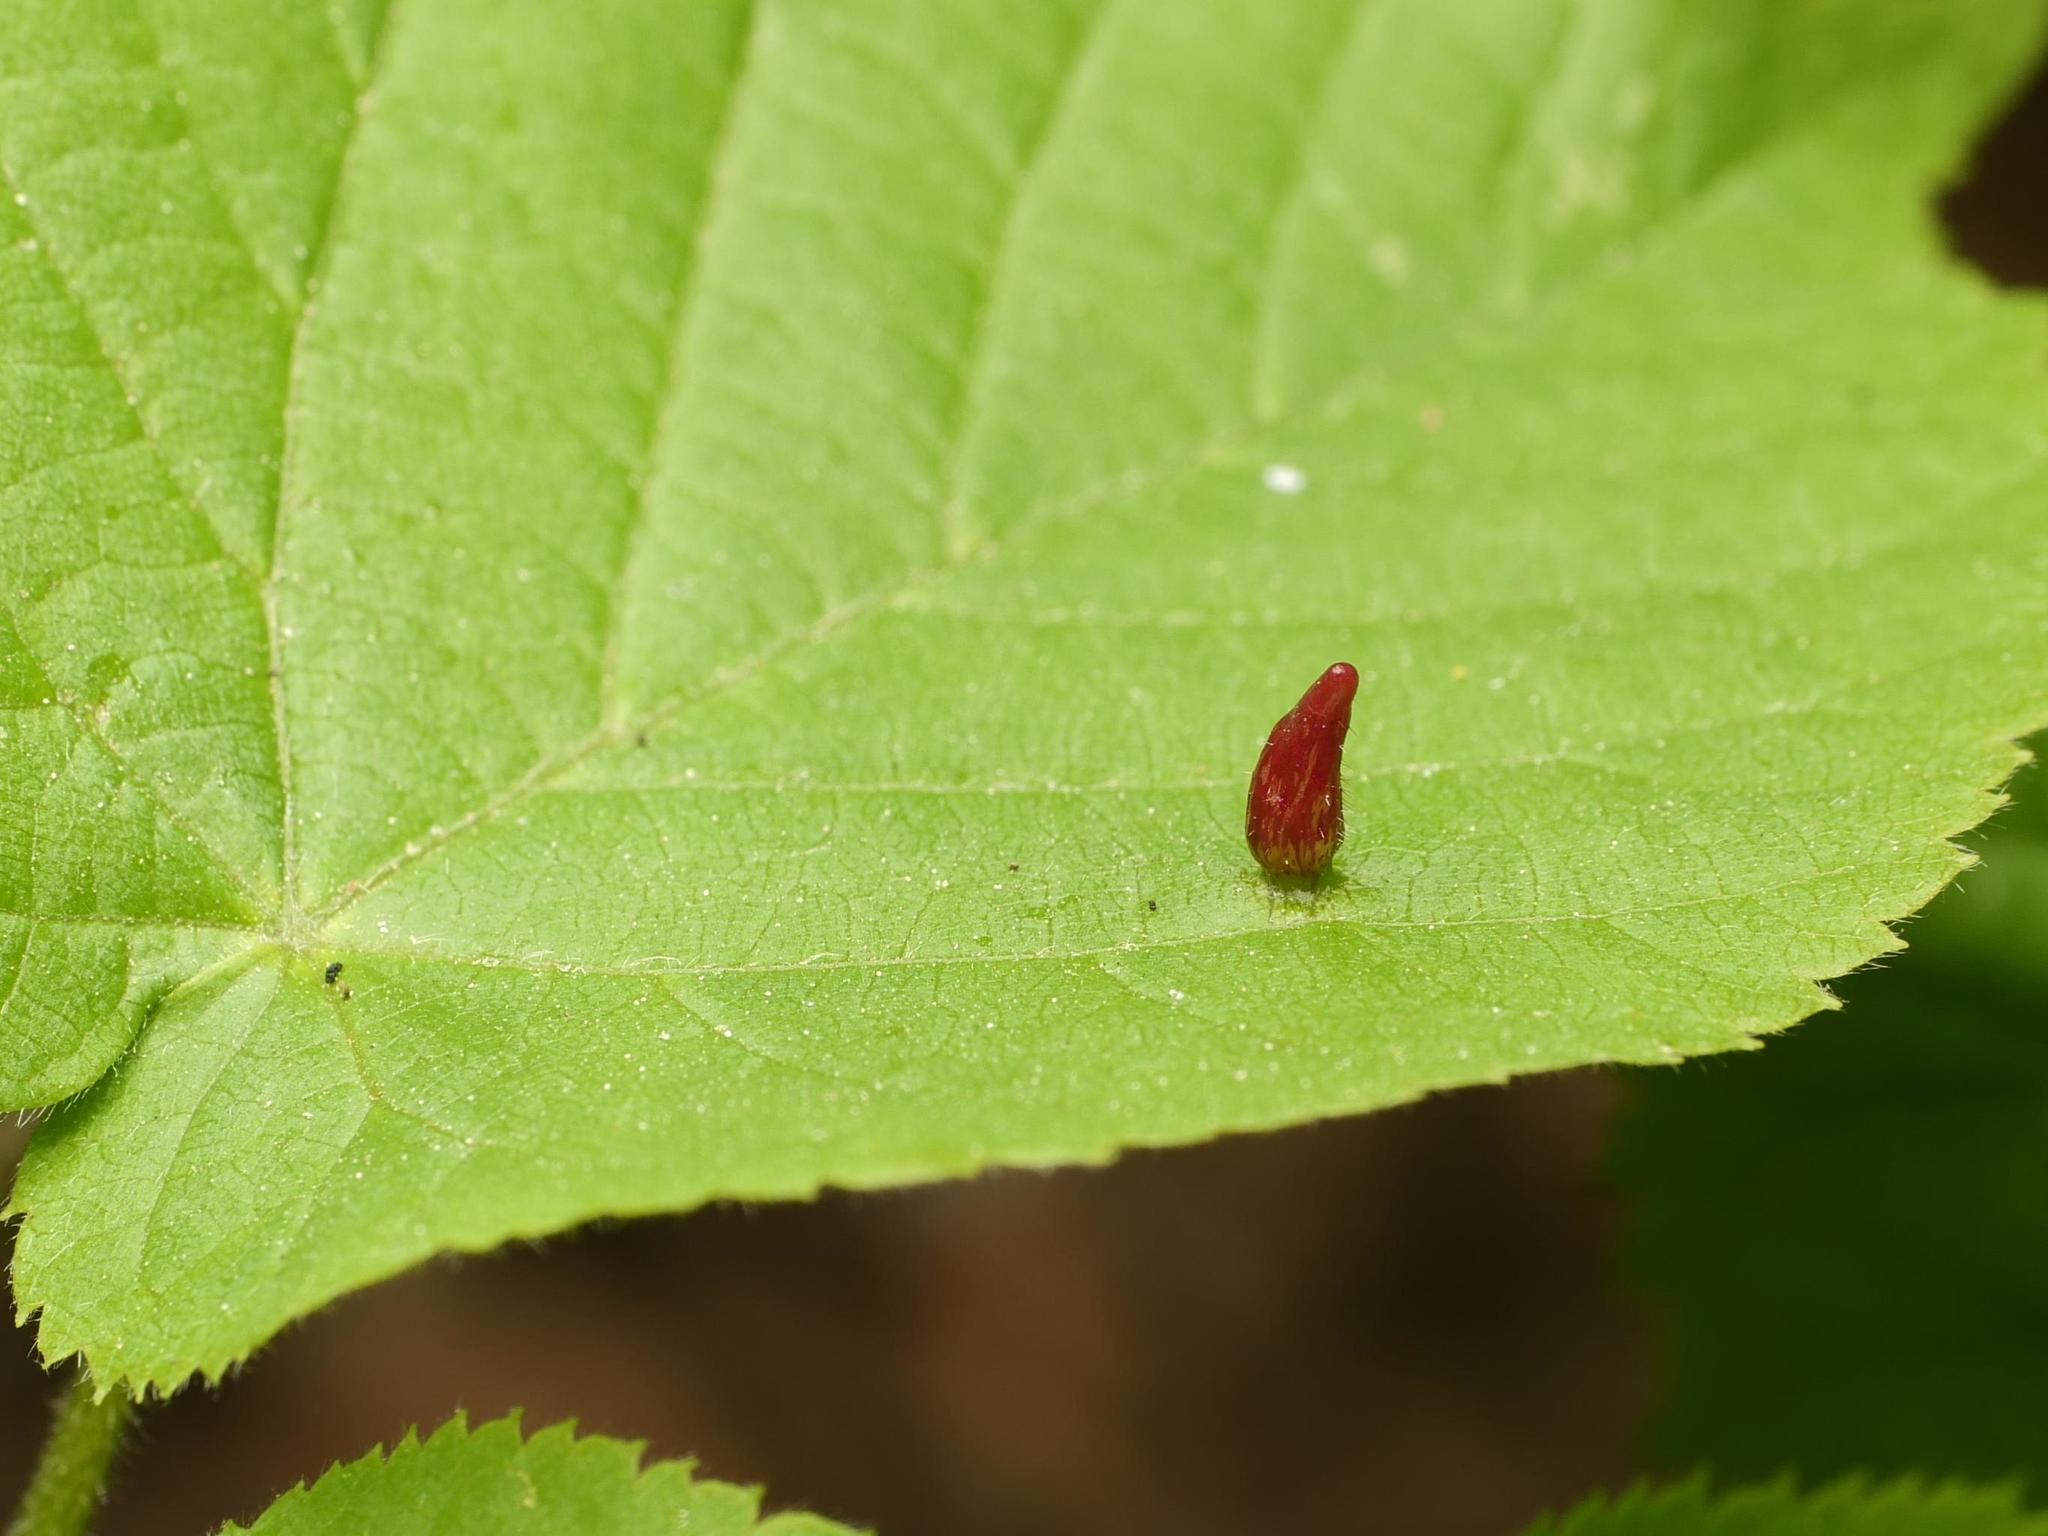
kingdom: Animalia
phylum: Arthropoda
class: Arachnida
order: Trombidiformes
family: Eriophyidae
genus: Eriophyes
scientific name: Eriophyes tiliae
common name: Red nail gall mite
